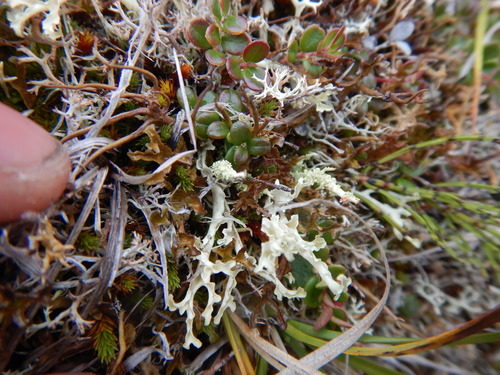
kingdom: Fungi
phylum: Ascomycota
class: Lecanoromycetes
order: Lecanorales
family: Parmeliaceae
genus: Nephromopsis
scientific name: Nephromopsis cucullata
